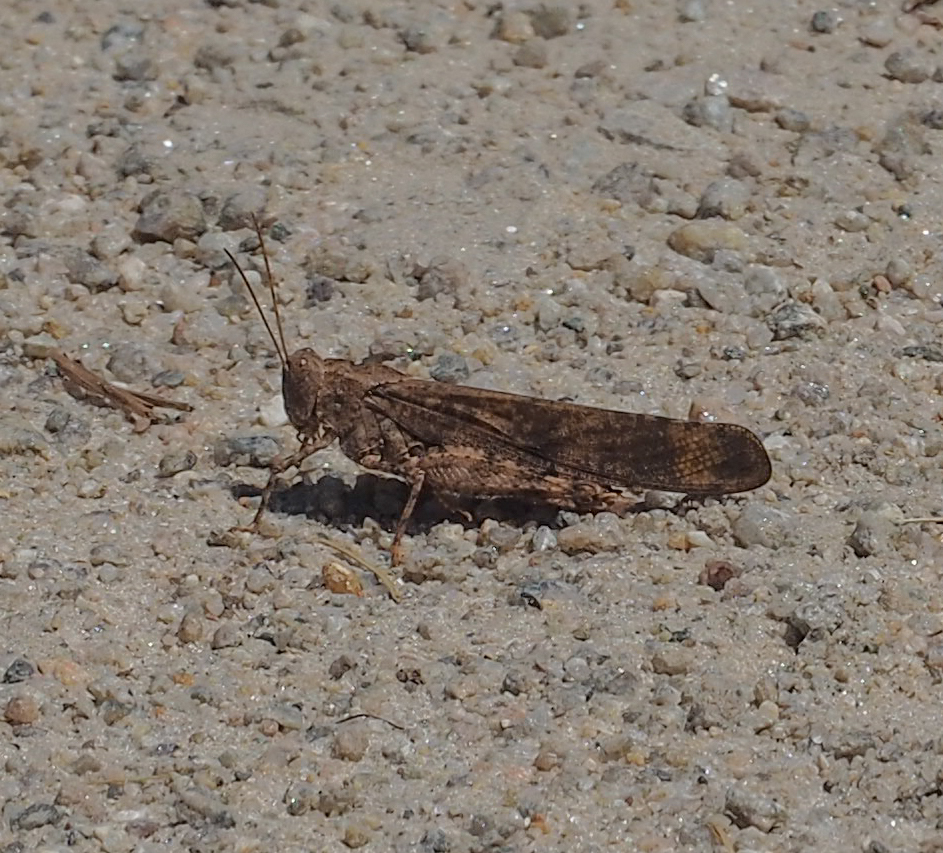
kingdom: Animalia
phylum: Arthropoda
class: Insecta
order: Orthoptera
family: Acrididae
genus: Dissosteira
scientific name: Dissosteira carolina
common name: Carolina grasshopper
